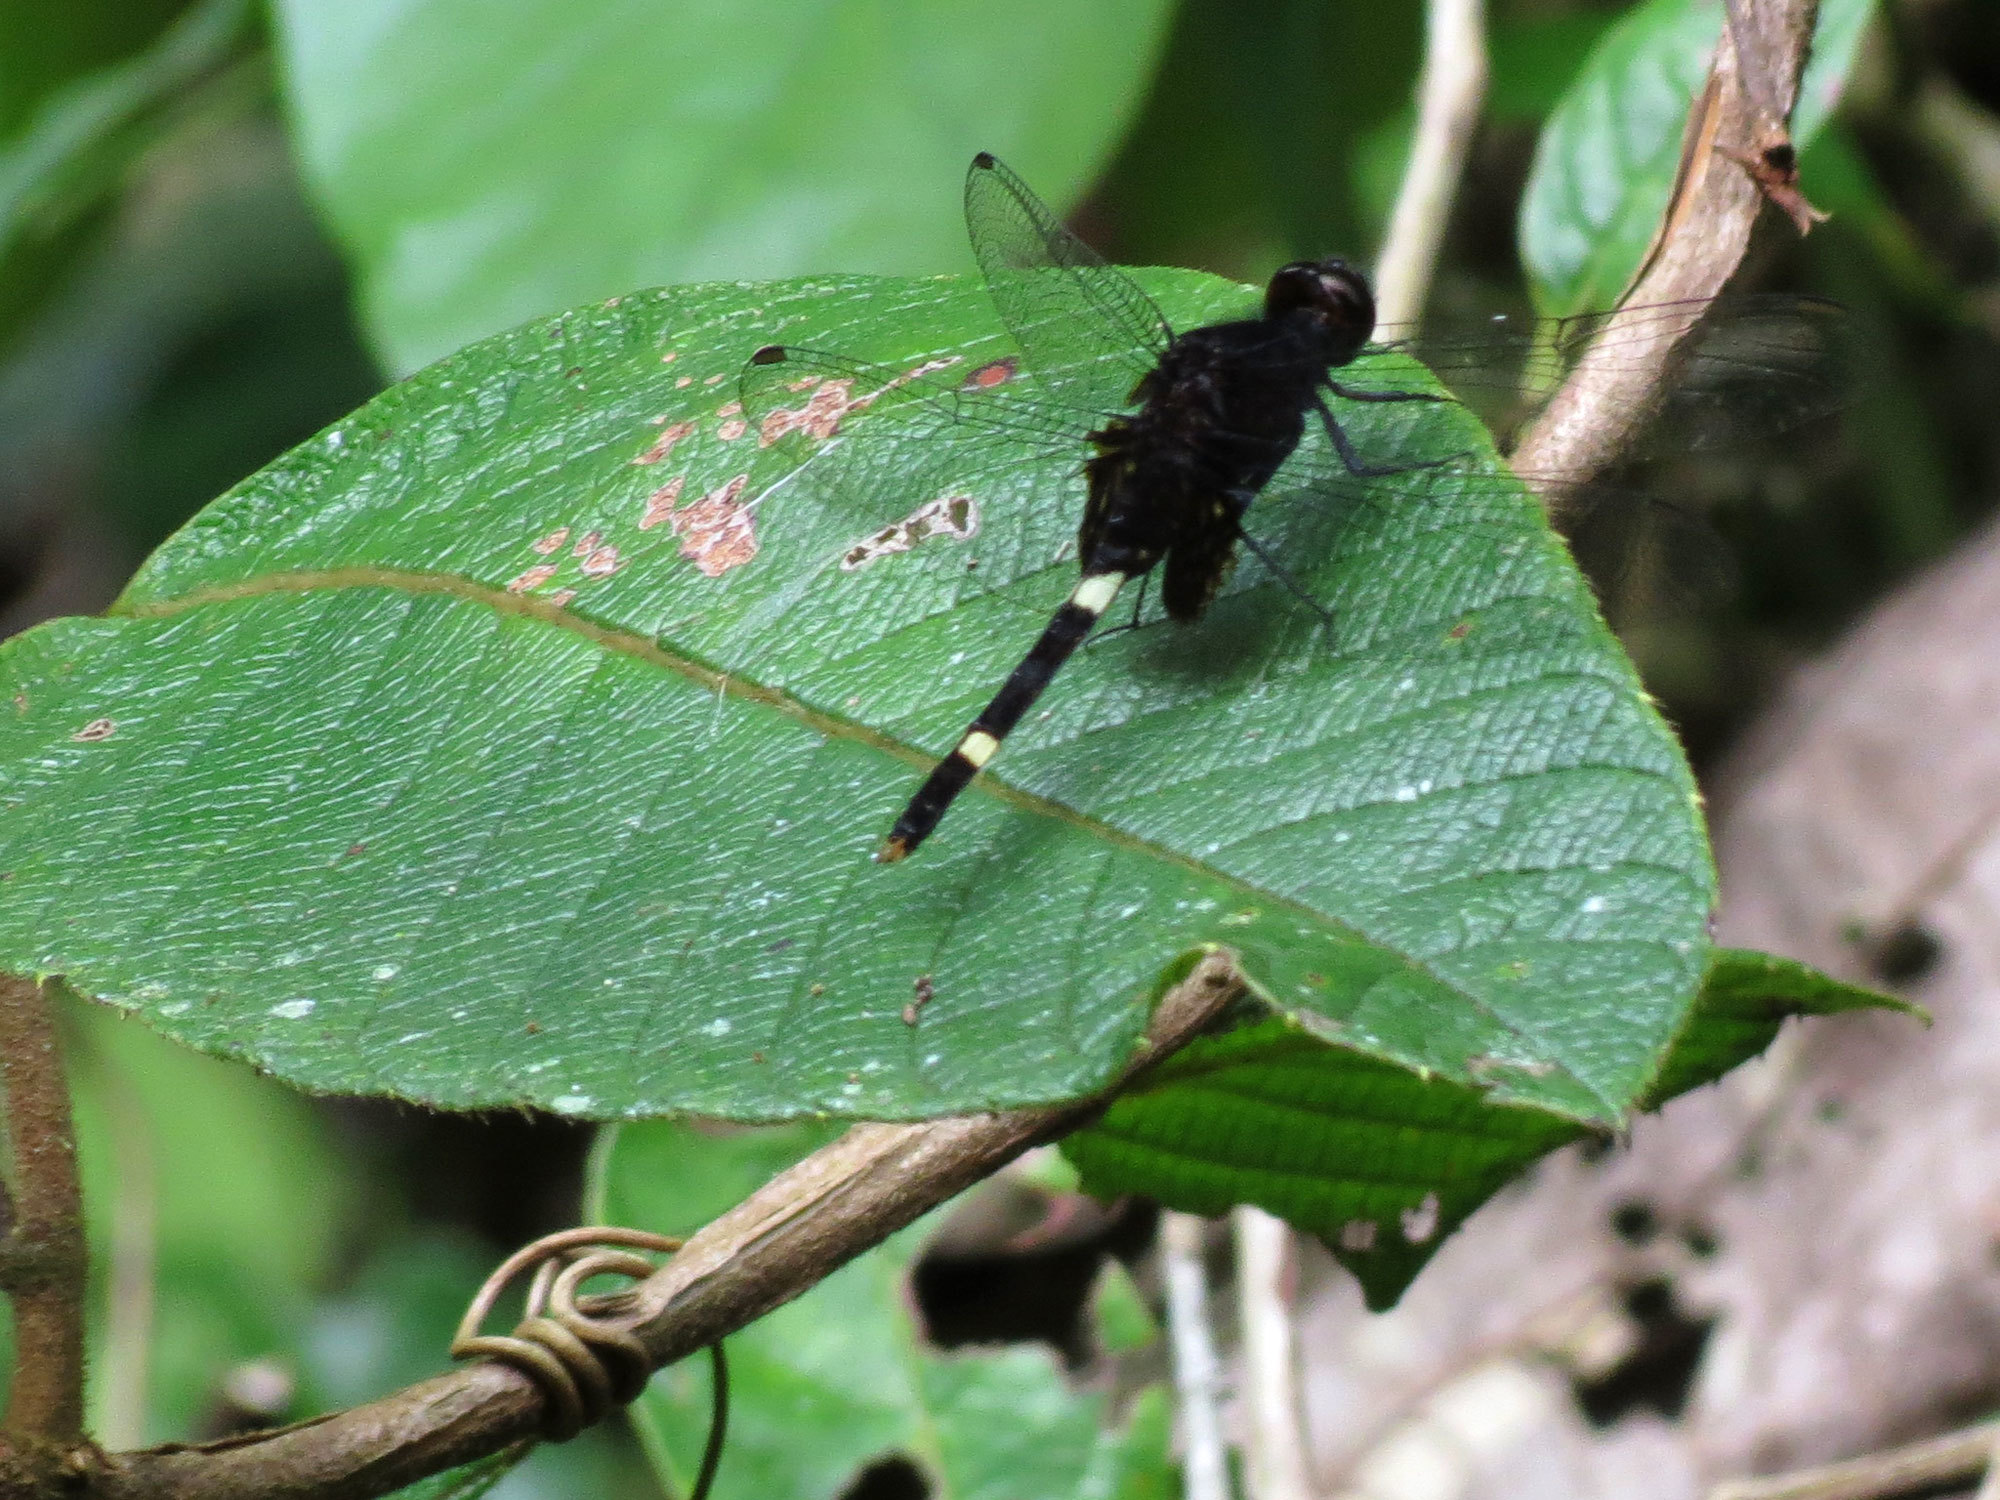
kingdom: Animalia
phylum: Arthropoda
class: Insecta
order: Odonata
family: Libellulidae
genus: Erythemis
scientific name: Erythemis attala
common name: Black pondhawk
